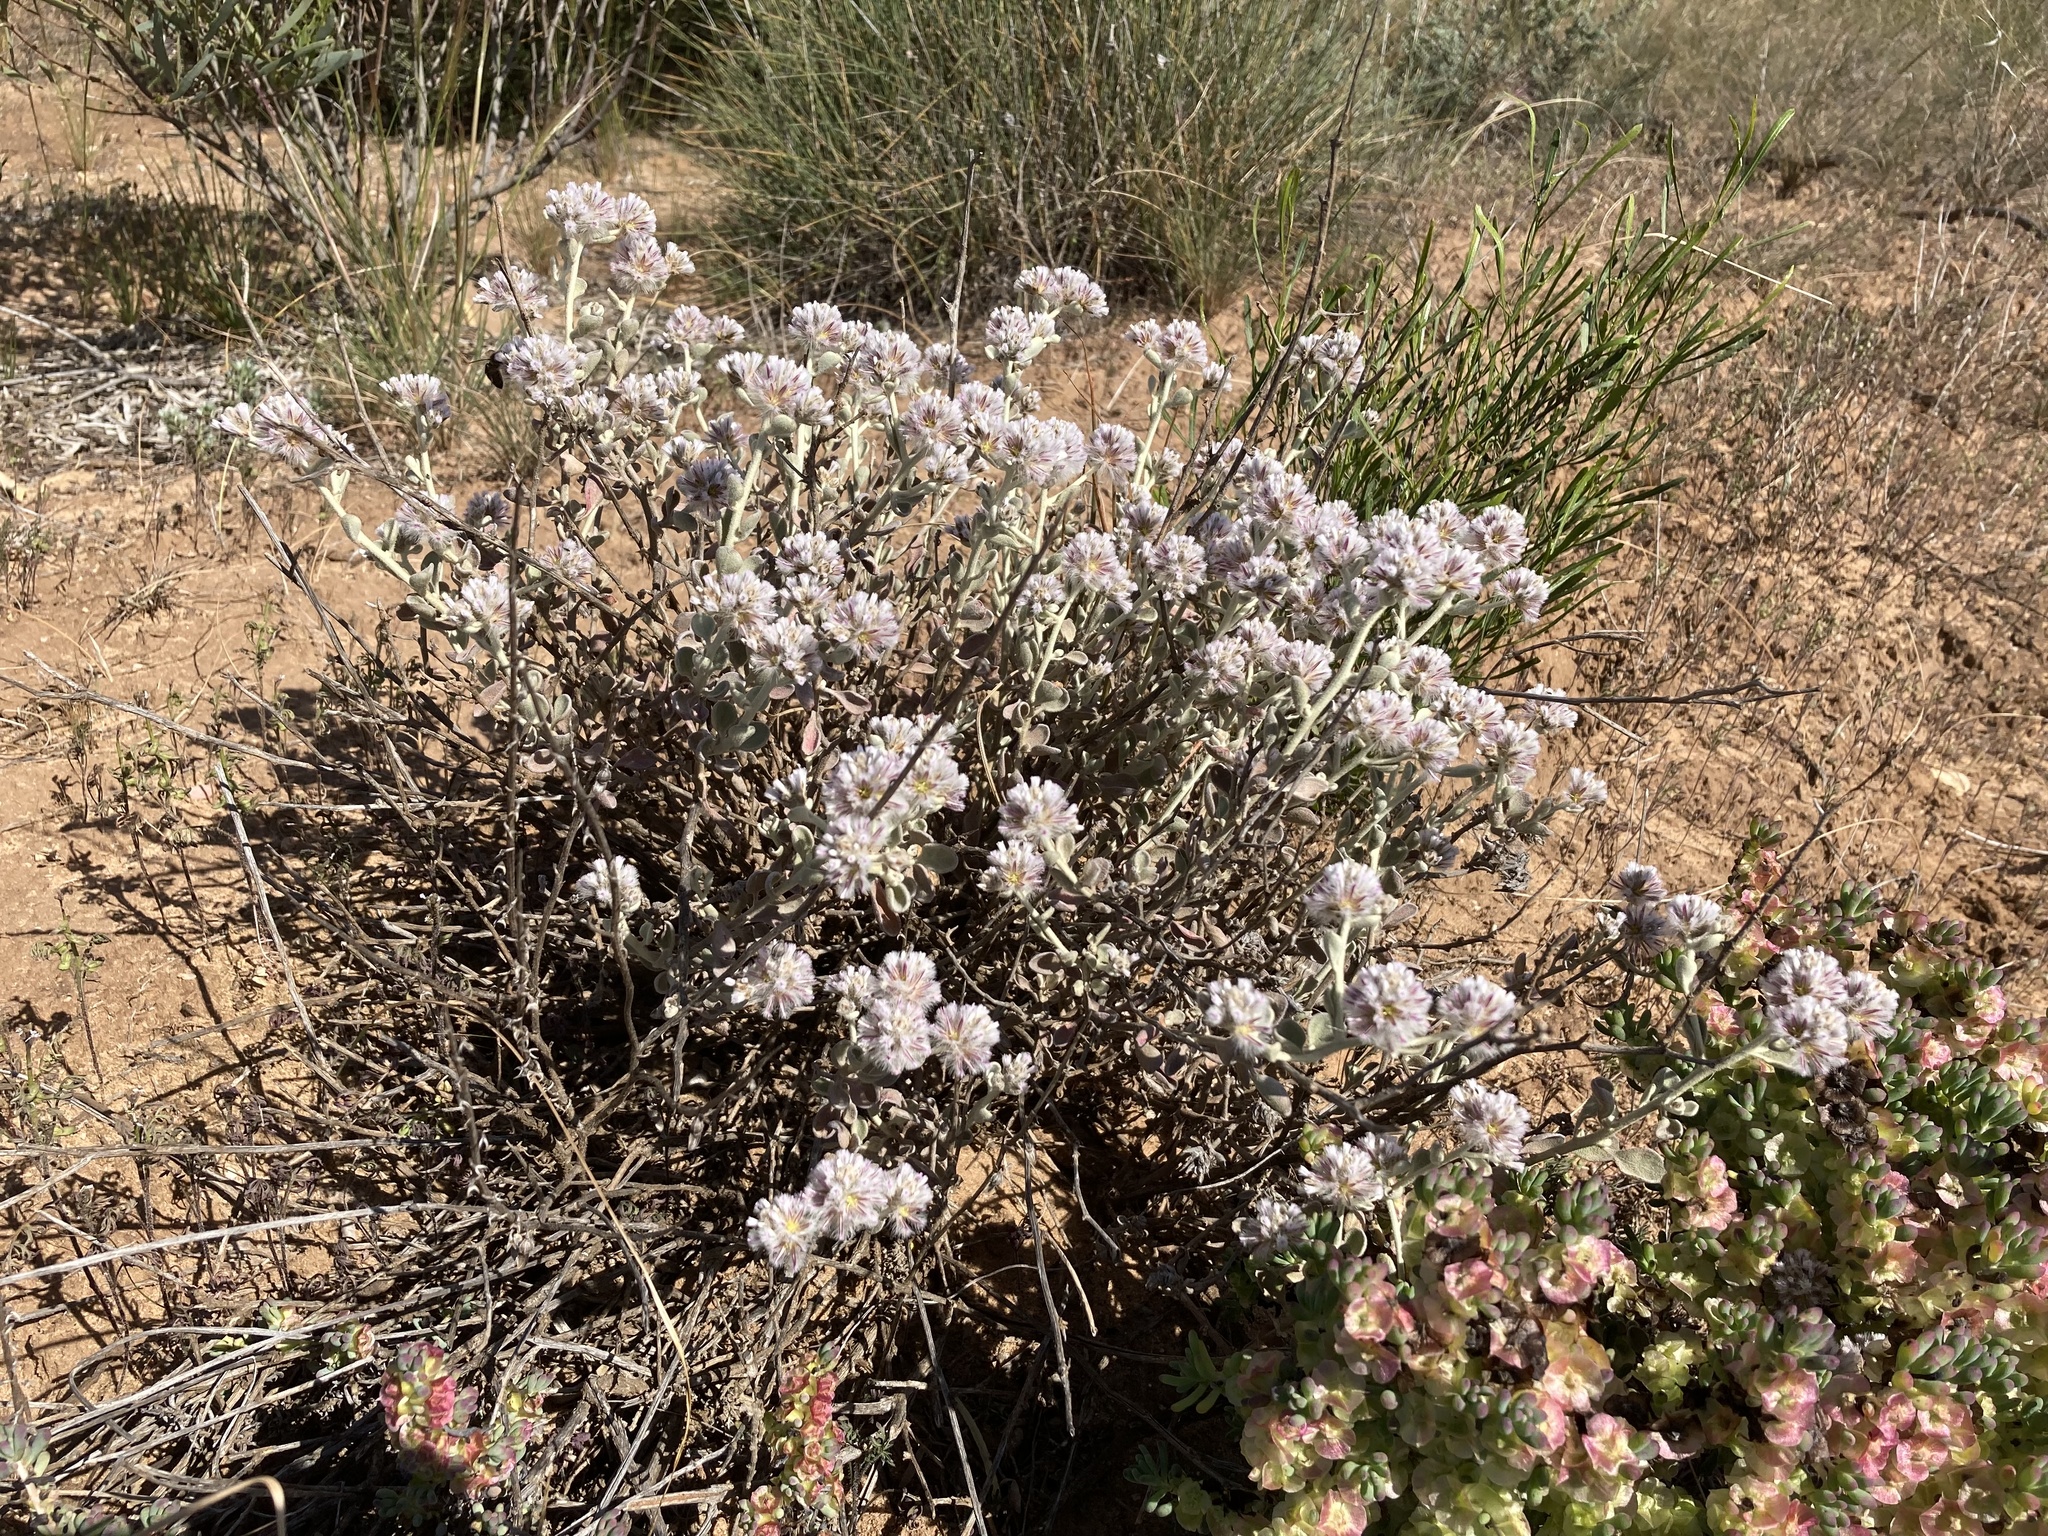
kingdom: Plantae
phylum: Tracheophyta
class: Magnoliopsida
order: Caryophyllales
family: Amaranthaceae
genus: Ptilotus
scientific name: Ptilotus obovatus
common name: Cottonbush
